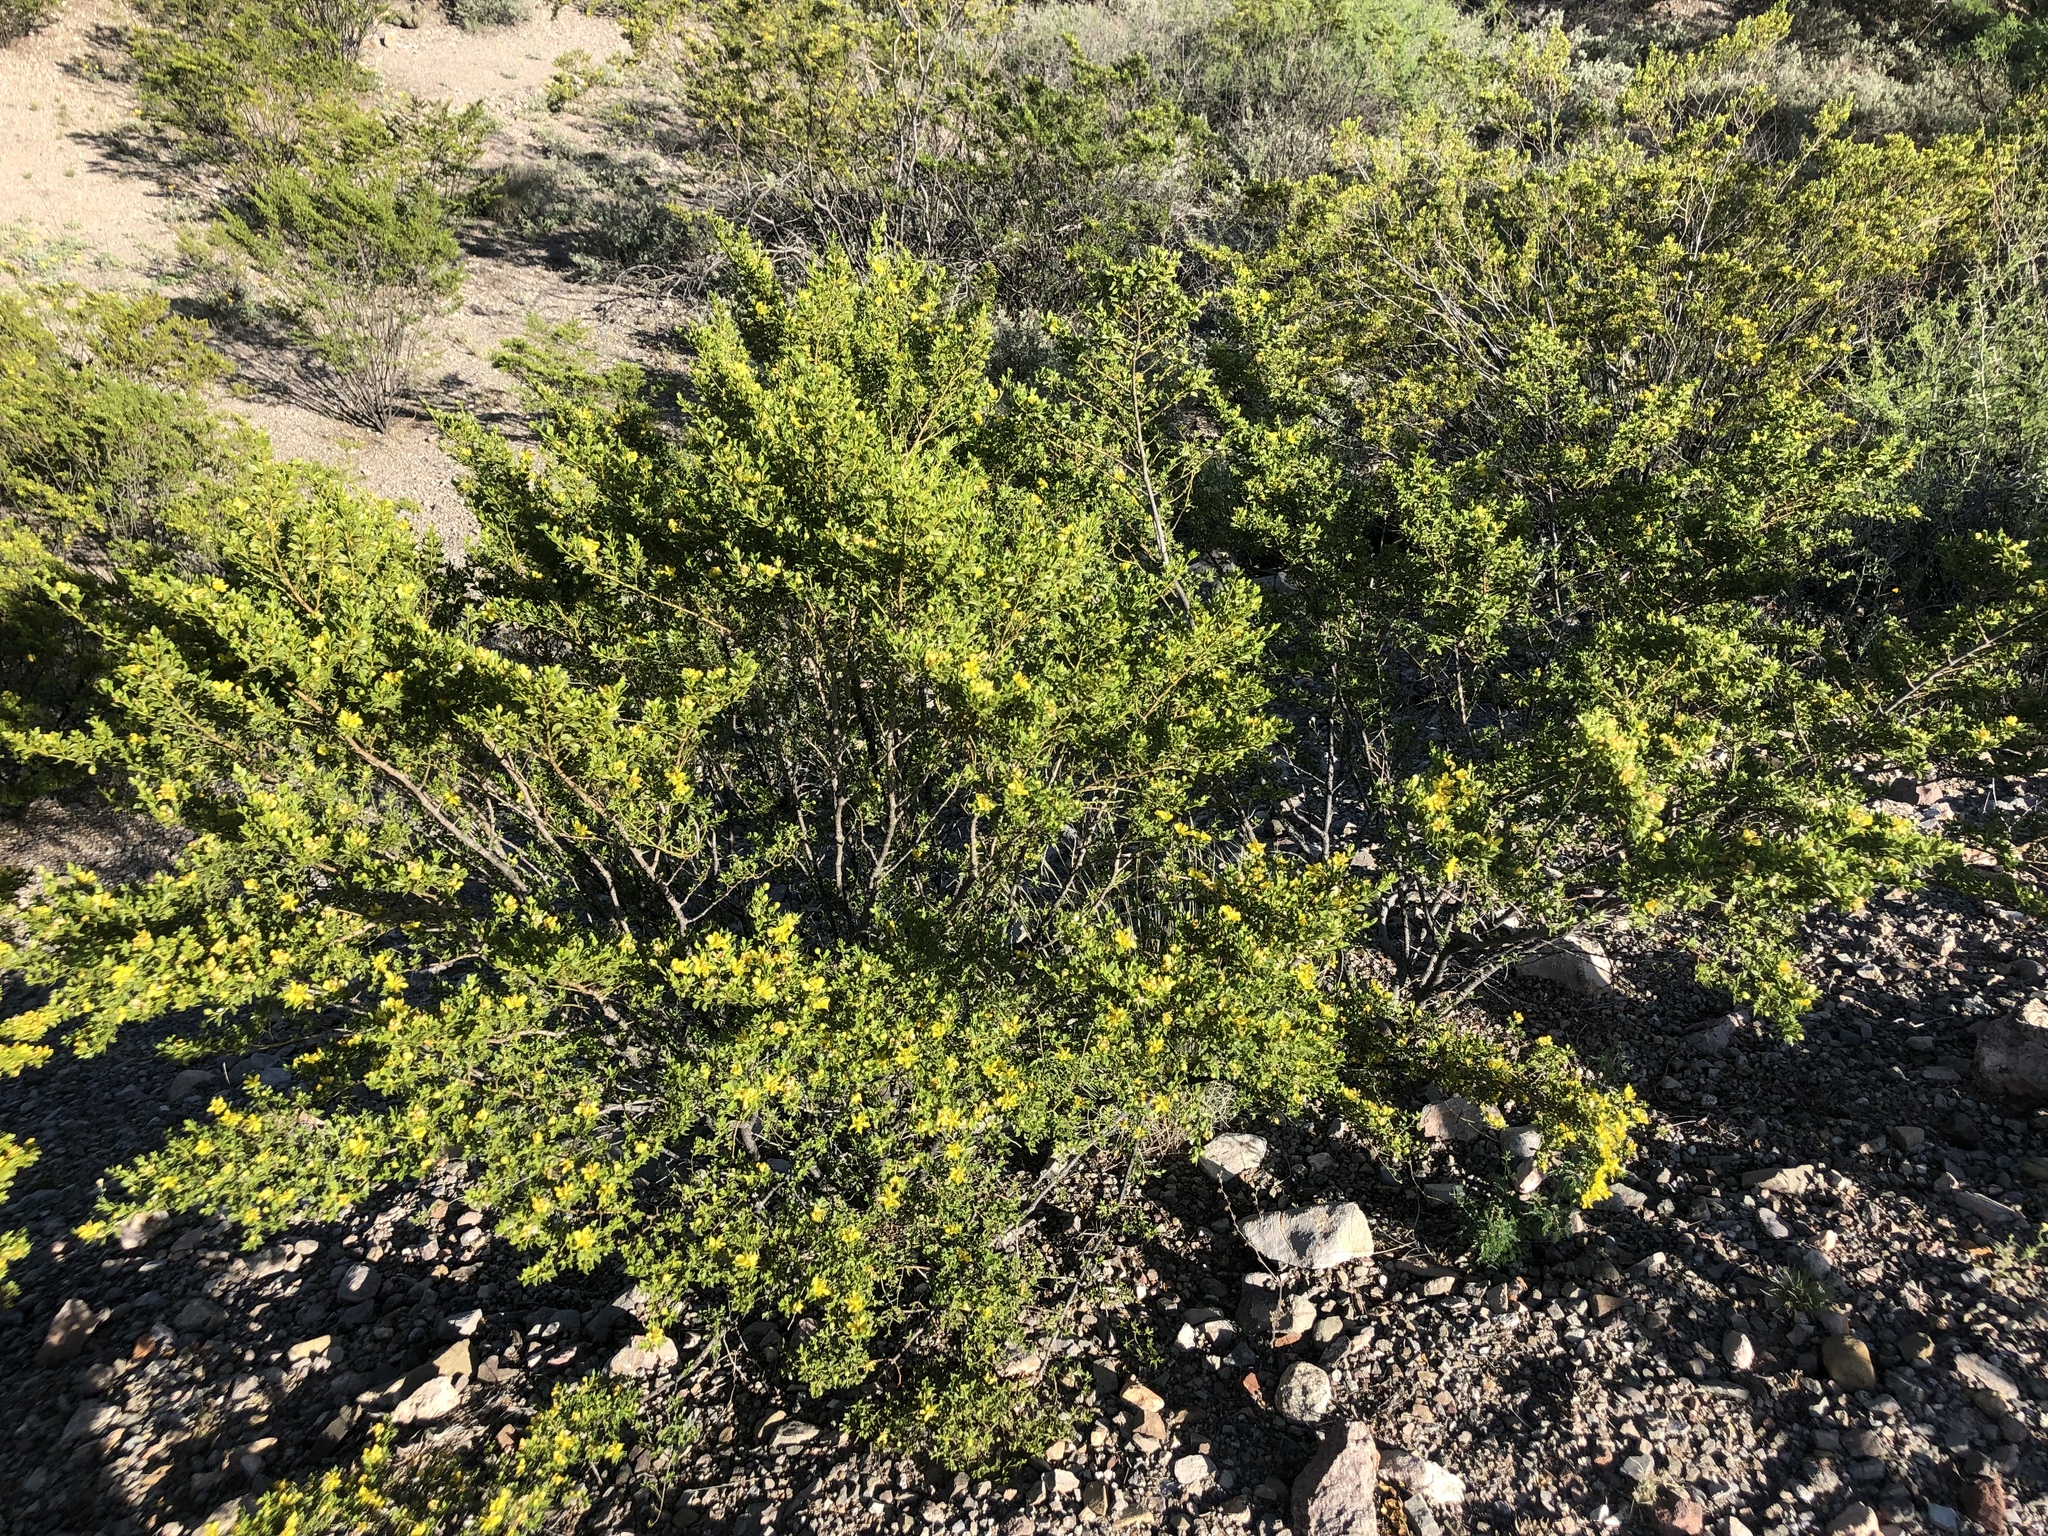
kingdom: Plantae
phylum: Tracheophyta
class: Magnoliopsida
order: Zygophyllales
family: Zygophyllaceae
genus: Larrea
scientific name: Larrea tridentata
